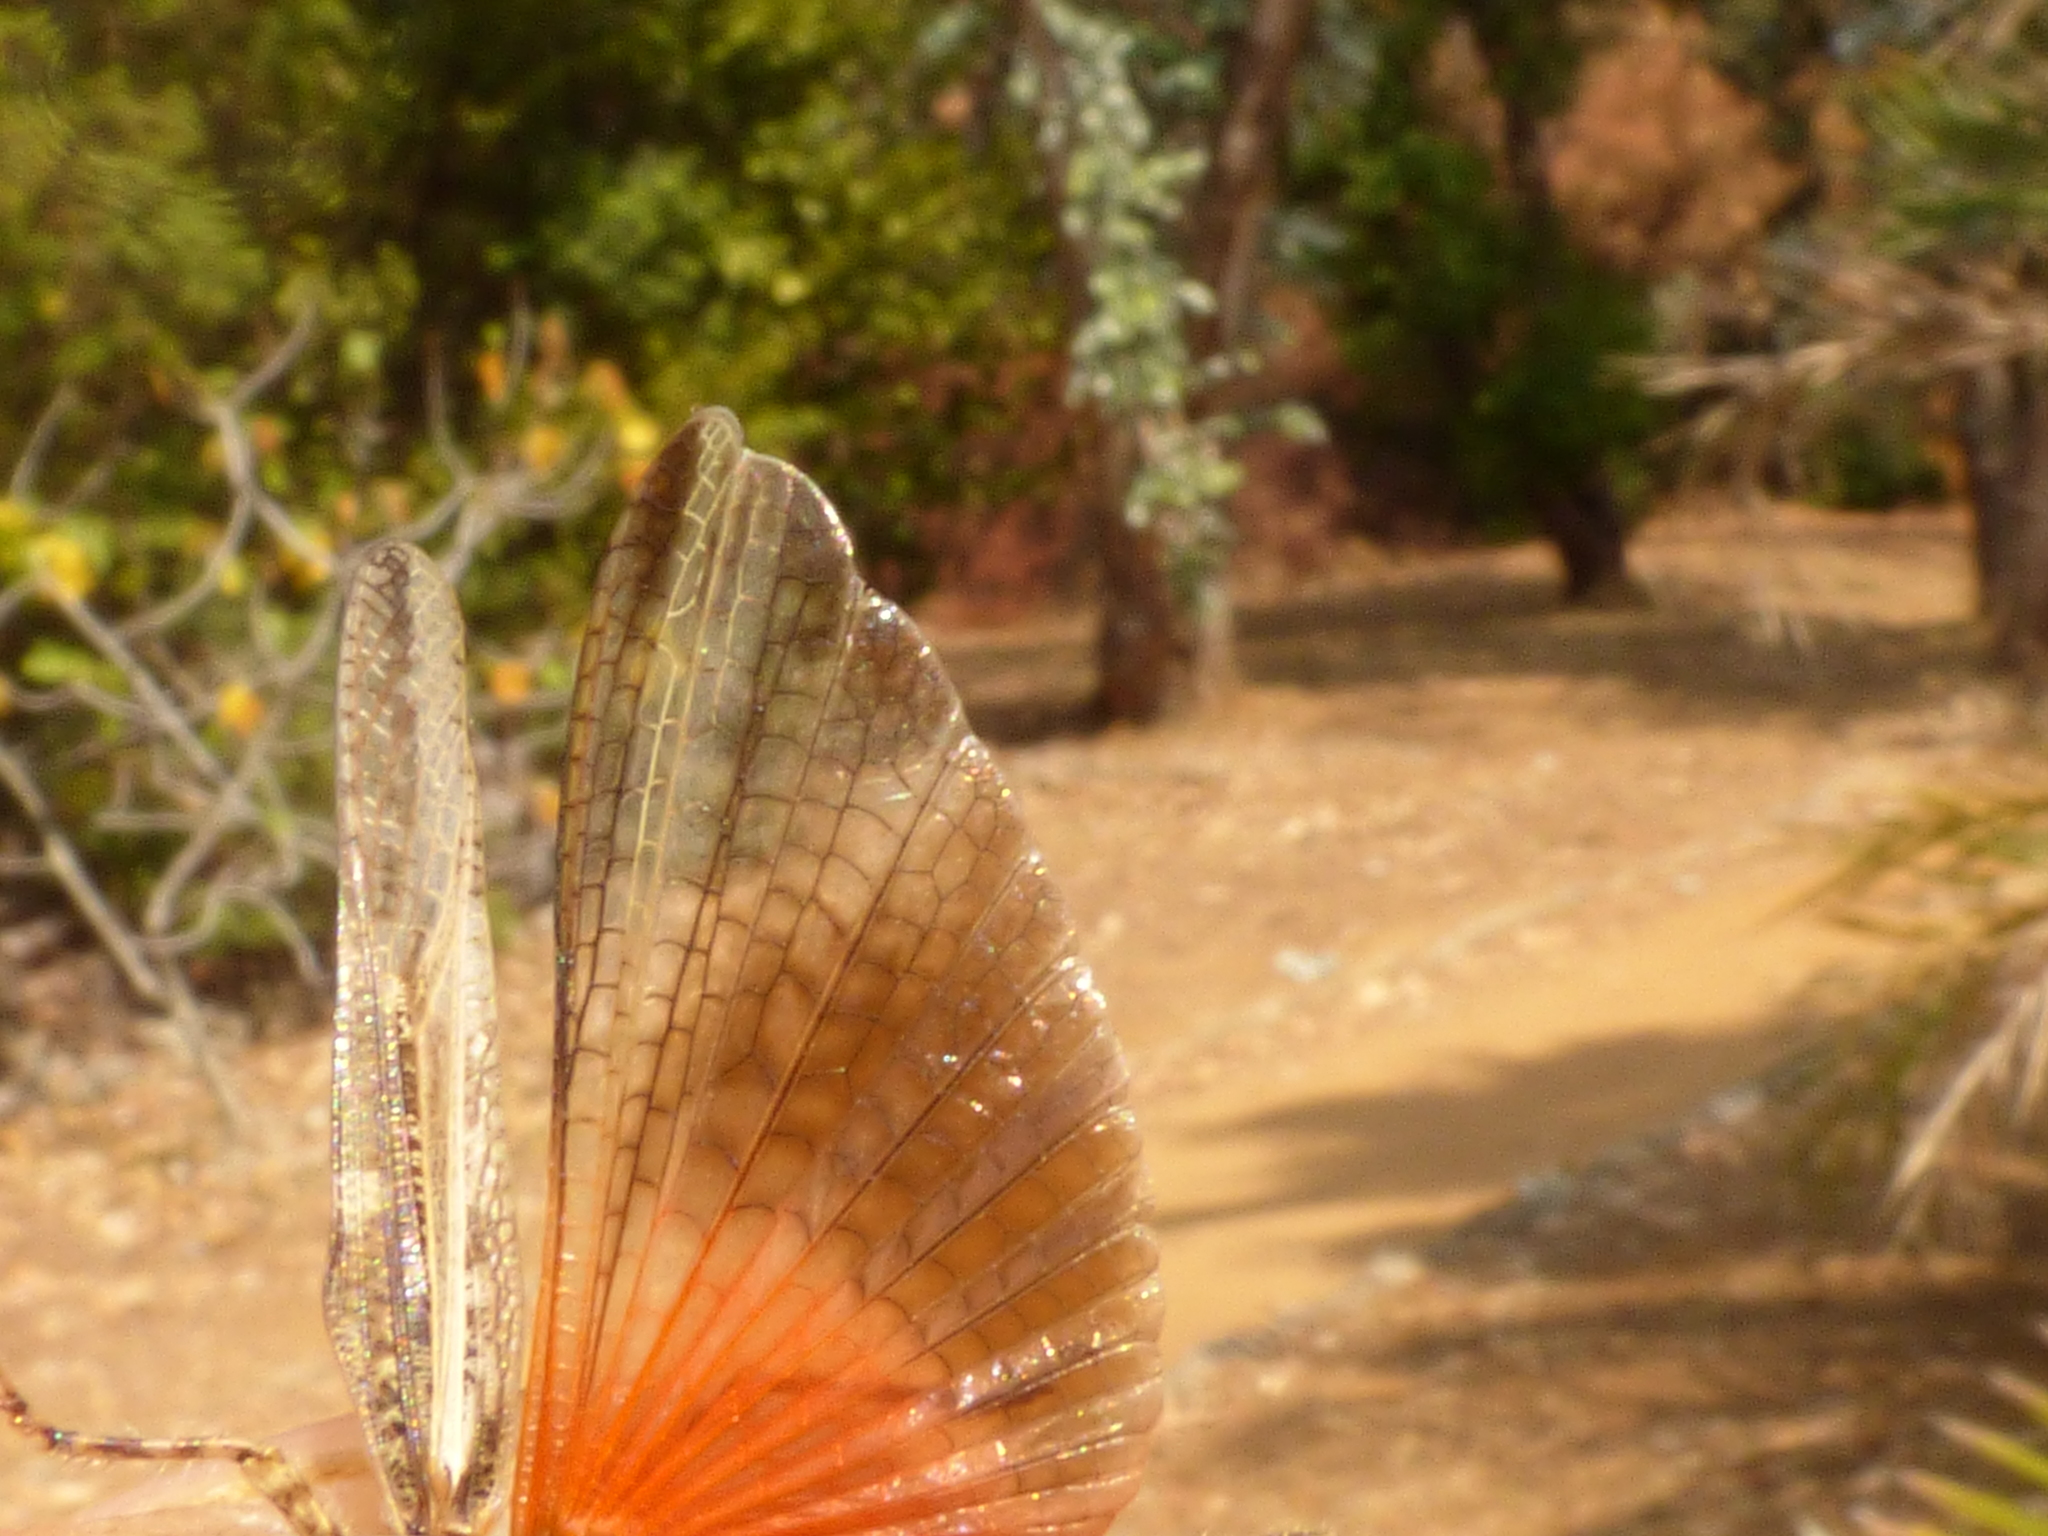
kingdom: Animalia
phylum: Arthropoda
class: Insecta
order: Orthoptera
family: Acrididae
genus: Acrotylus
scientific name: Acrotylus patruelis
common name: Slender burrowing grasshopper
